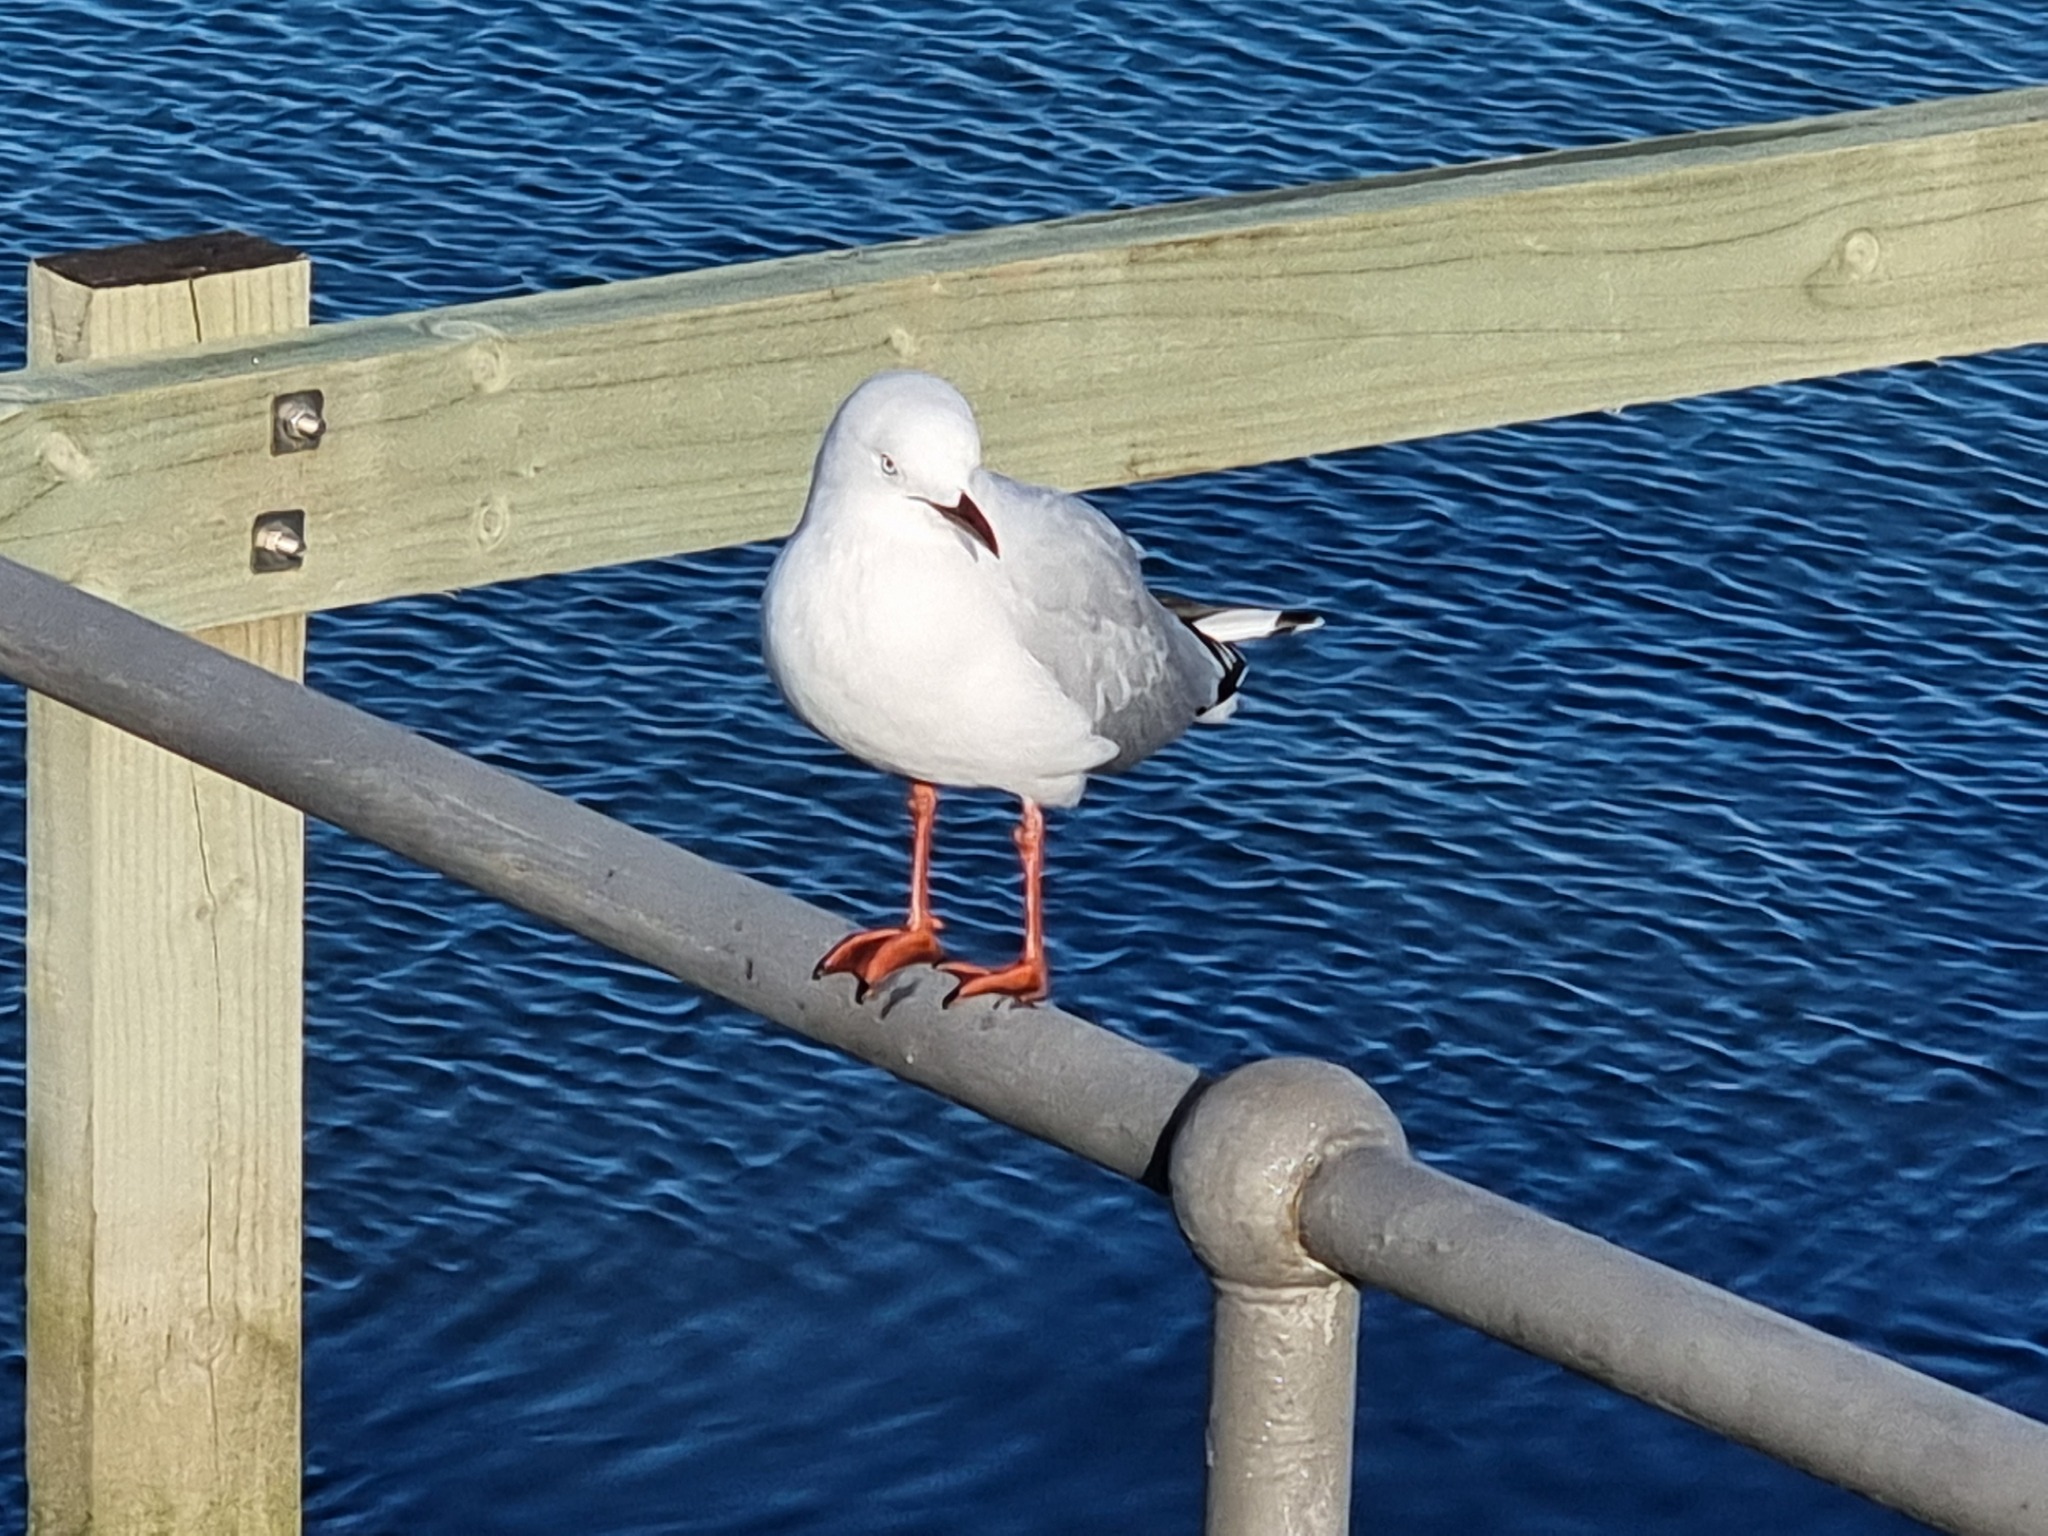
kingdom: Animalia
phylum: Chordata
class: Aves
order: Charadriiformes
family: Laridae
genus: Chroicocephalus
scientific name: Chroicocephalus novaehollandiae
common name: Silver gull
